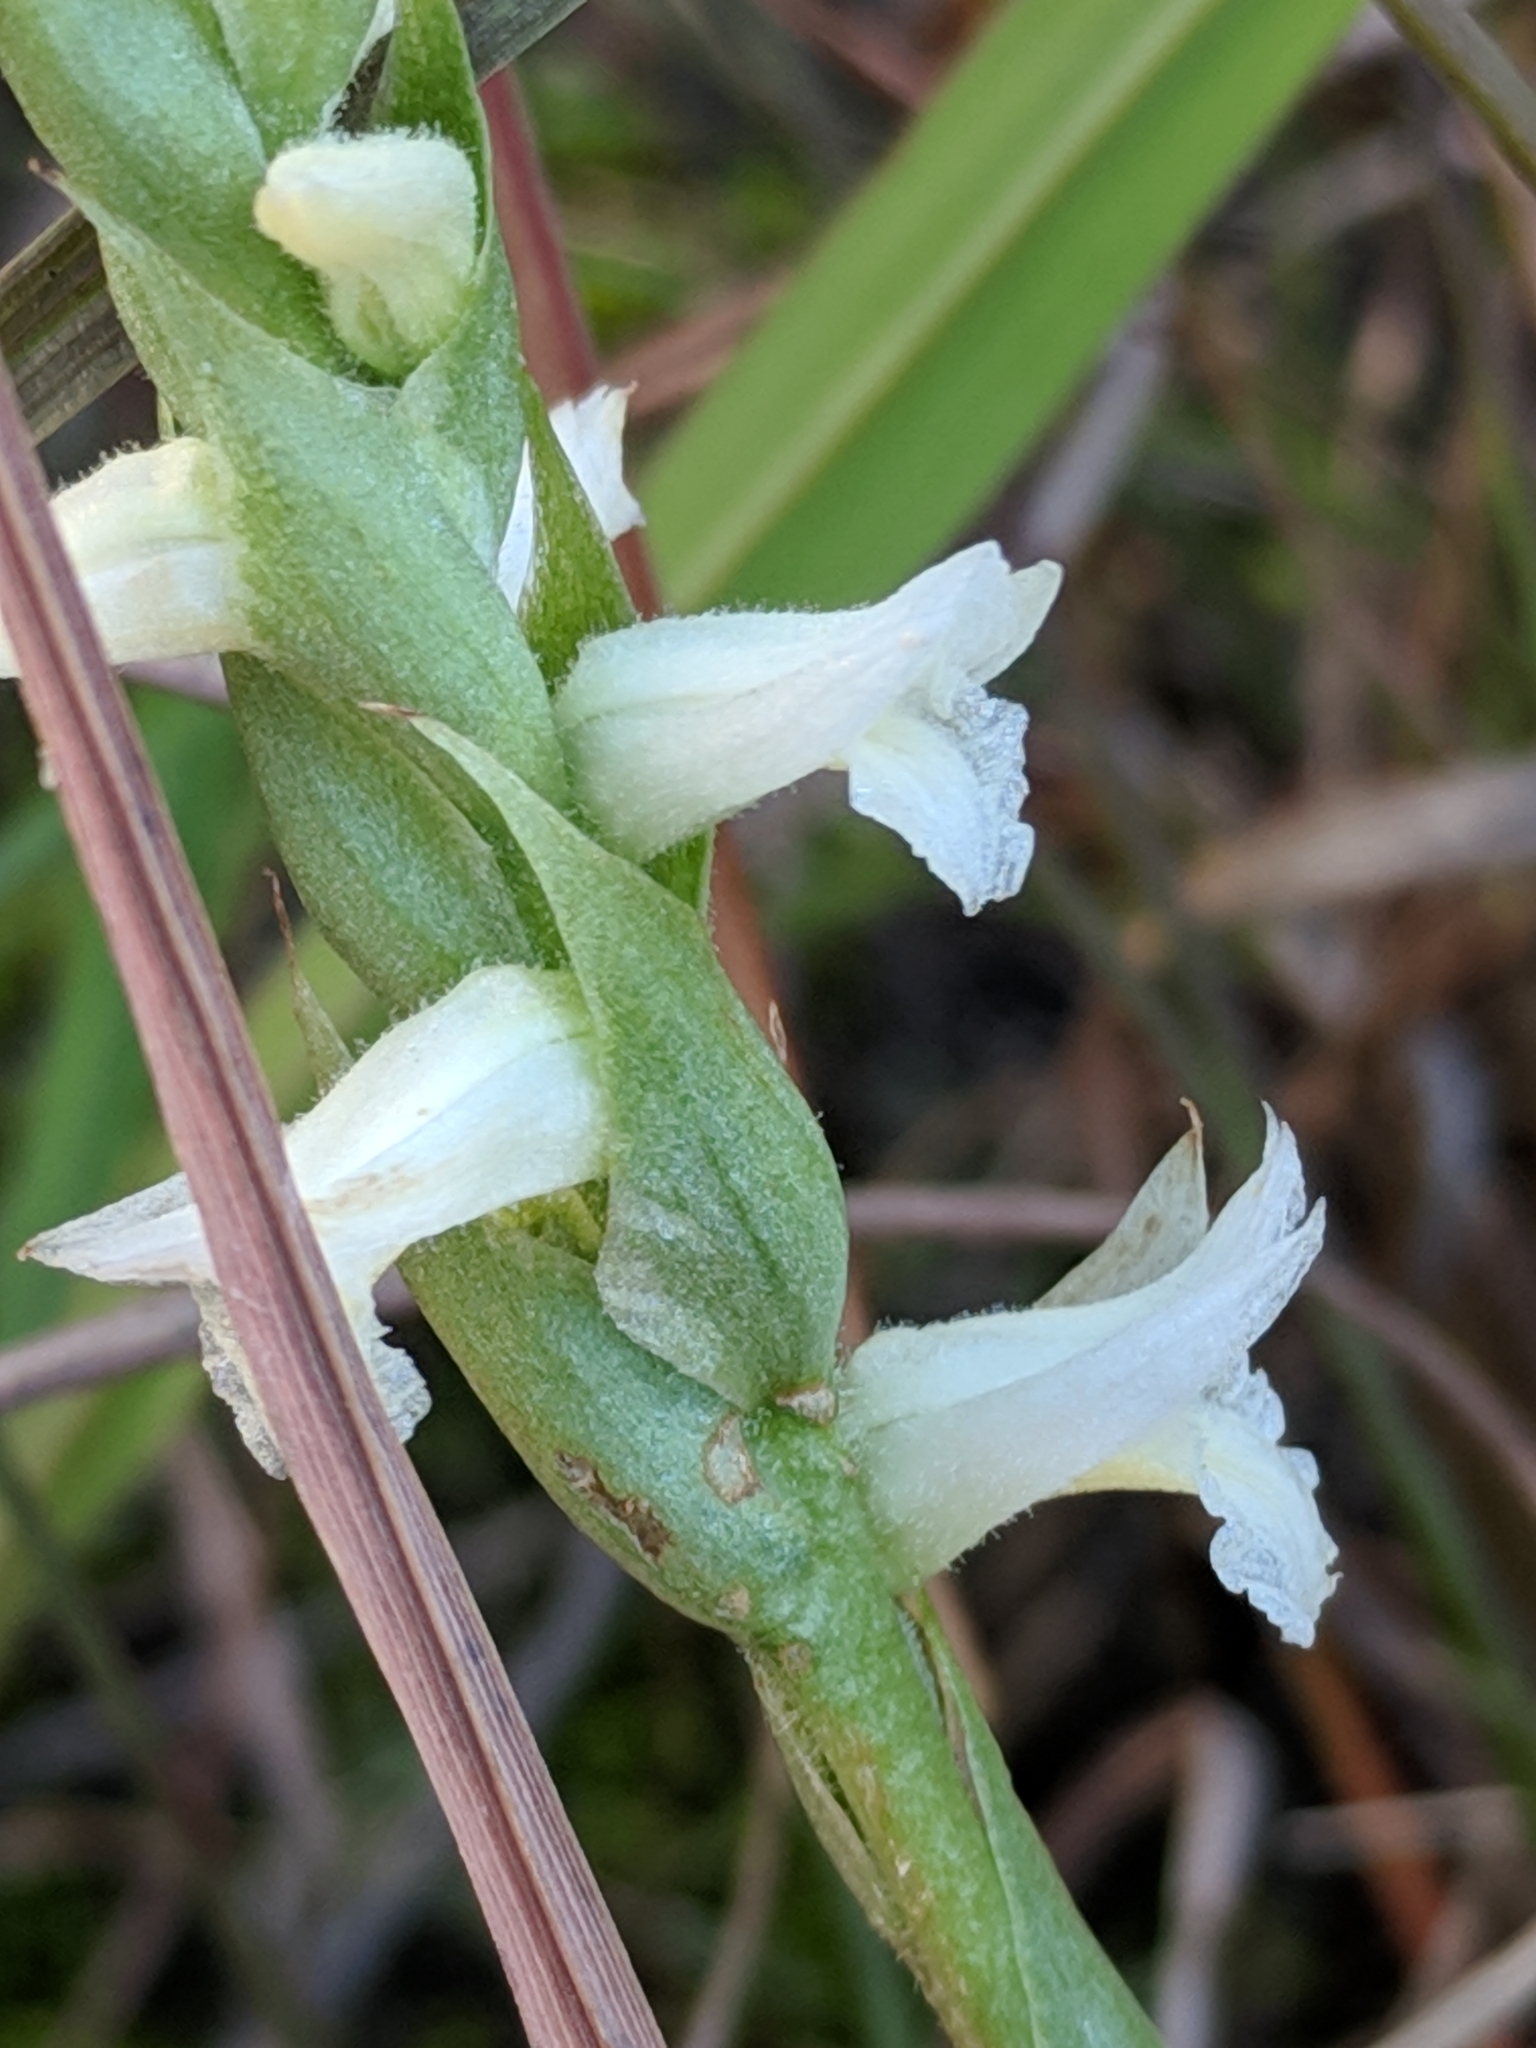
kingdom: Plantae
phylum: Tracheophyta
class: Liliopsida
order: Asparagales
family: Orchidaceae
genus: Spiranthes
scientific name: Spiranthes magnicamporum
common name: Great plains ladies'-tresses
